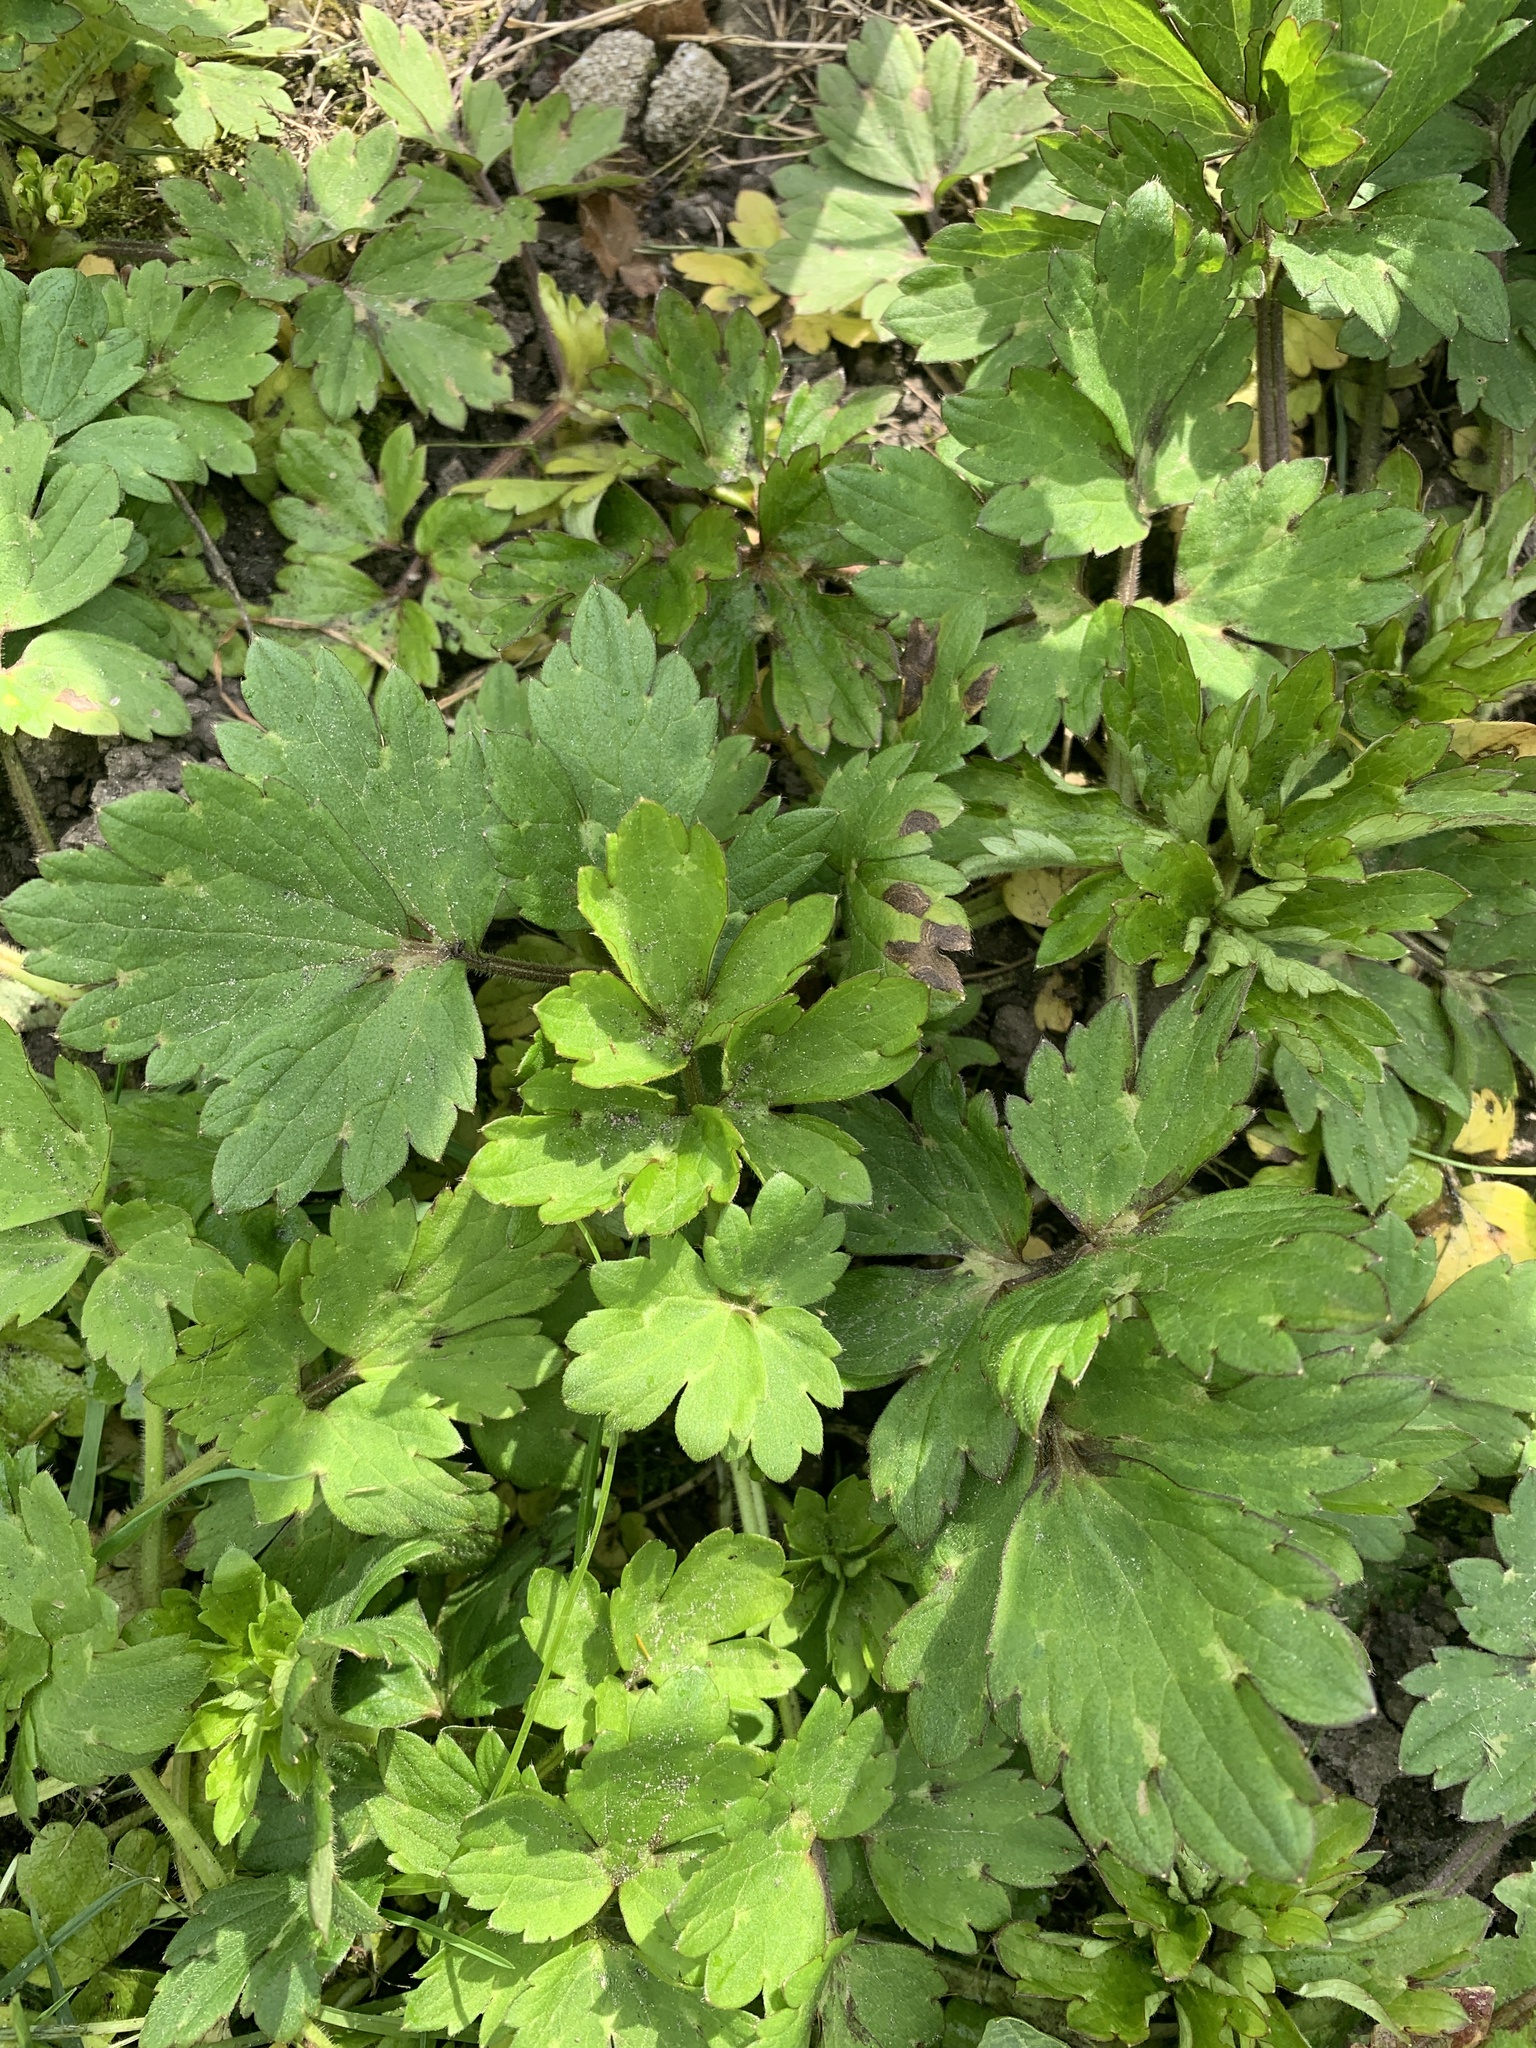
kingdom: Plantae
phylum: Tracheophyta
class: Magnoliopsida
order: Ranunculales
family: Ranunculaceae
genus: Ranunculus
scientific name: Ranunculus repens
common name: Creeping buttercup
